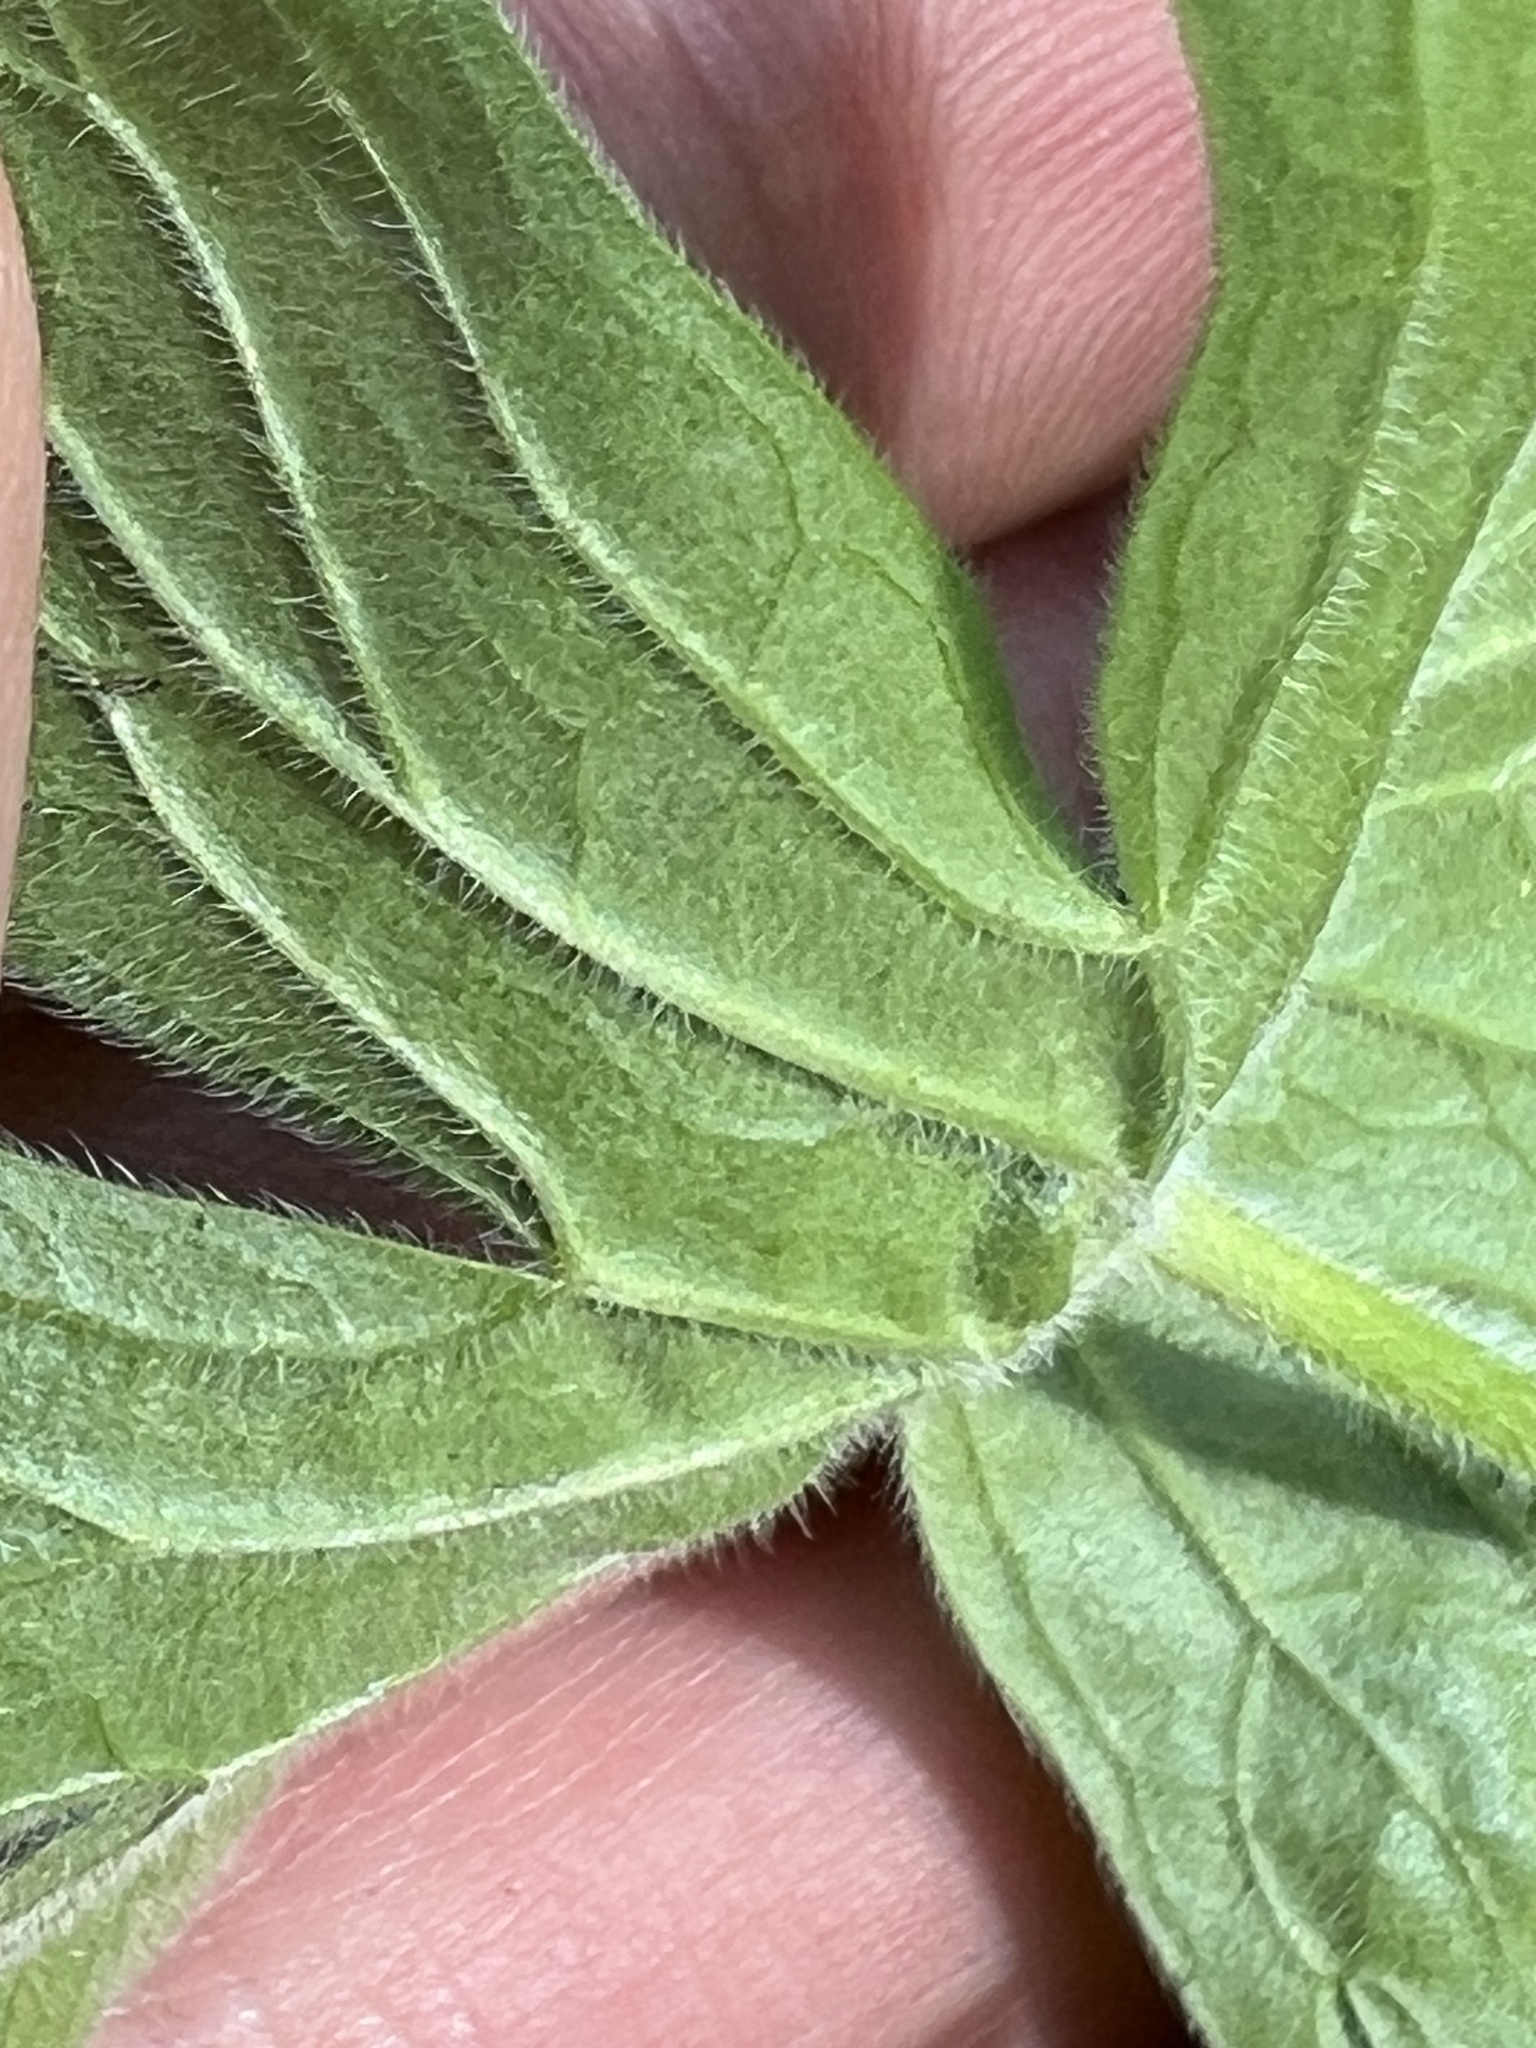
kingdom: Plantae
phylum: Tracheophyta
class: Magnoliopsida
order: Geraniales
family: Geraniaceae
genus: Geranium
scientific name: Geranium viscosissimum
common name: Purple geranium
